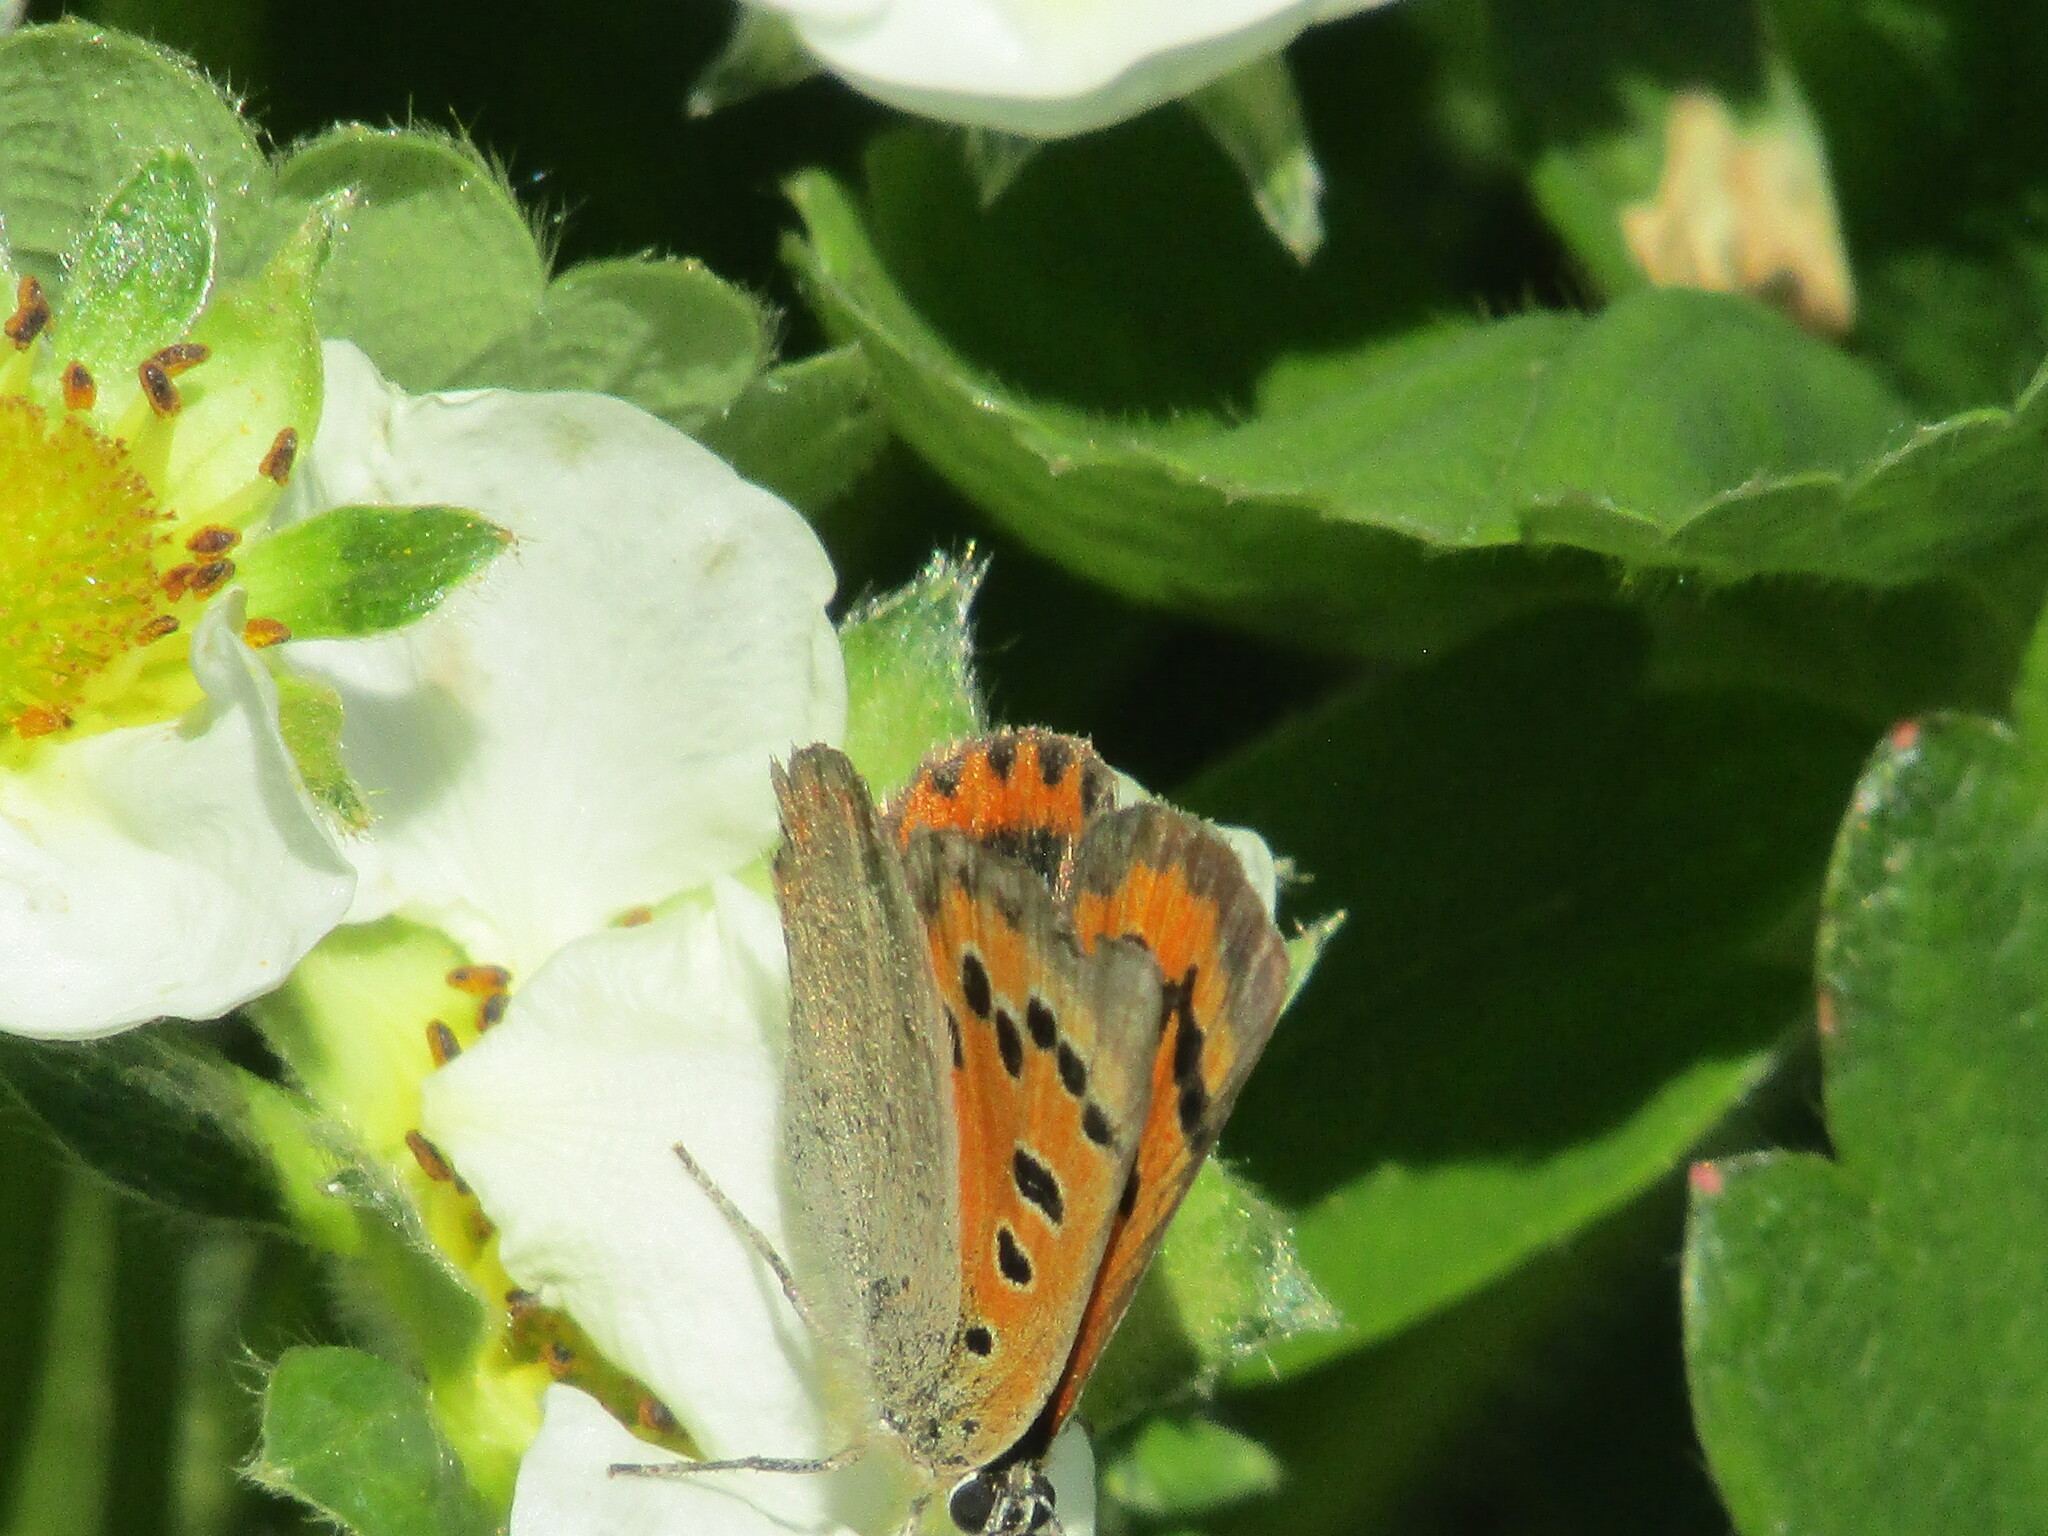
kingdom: Animalia
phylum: Arthropoda
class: Insecta
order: Lepidoptera
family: Lycaenidae
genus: Lycaena
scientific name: Lycaena phlaeas
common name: Small copper
